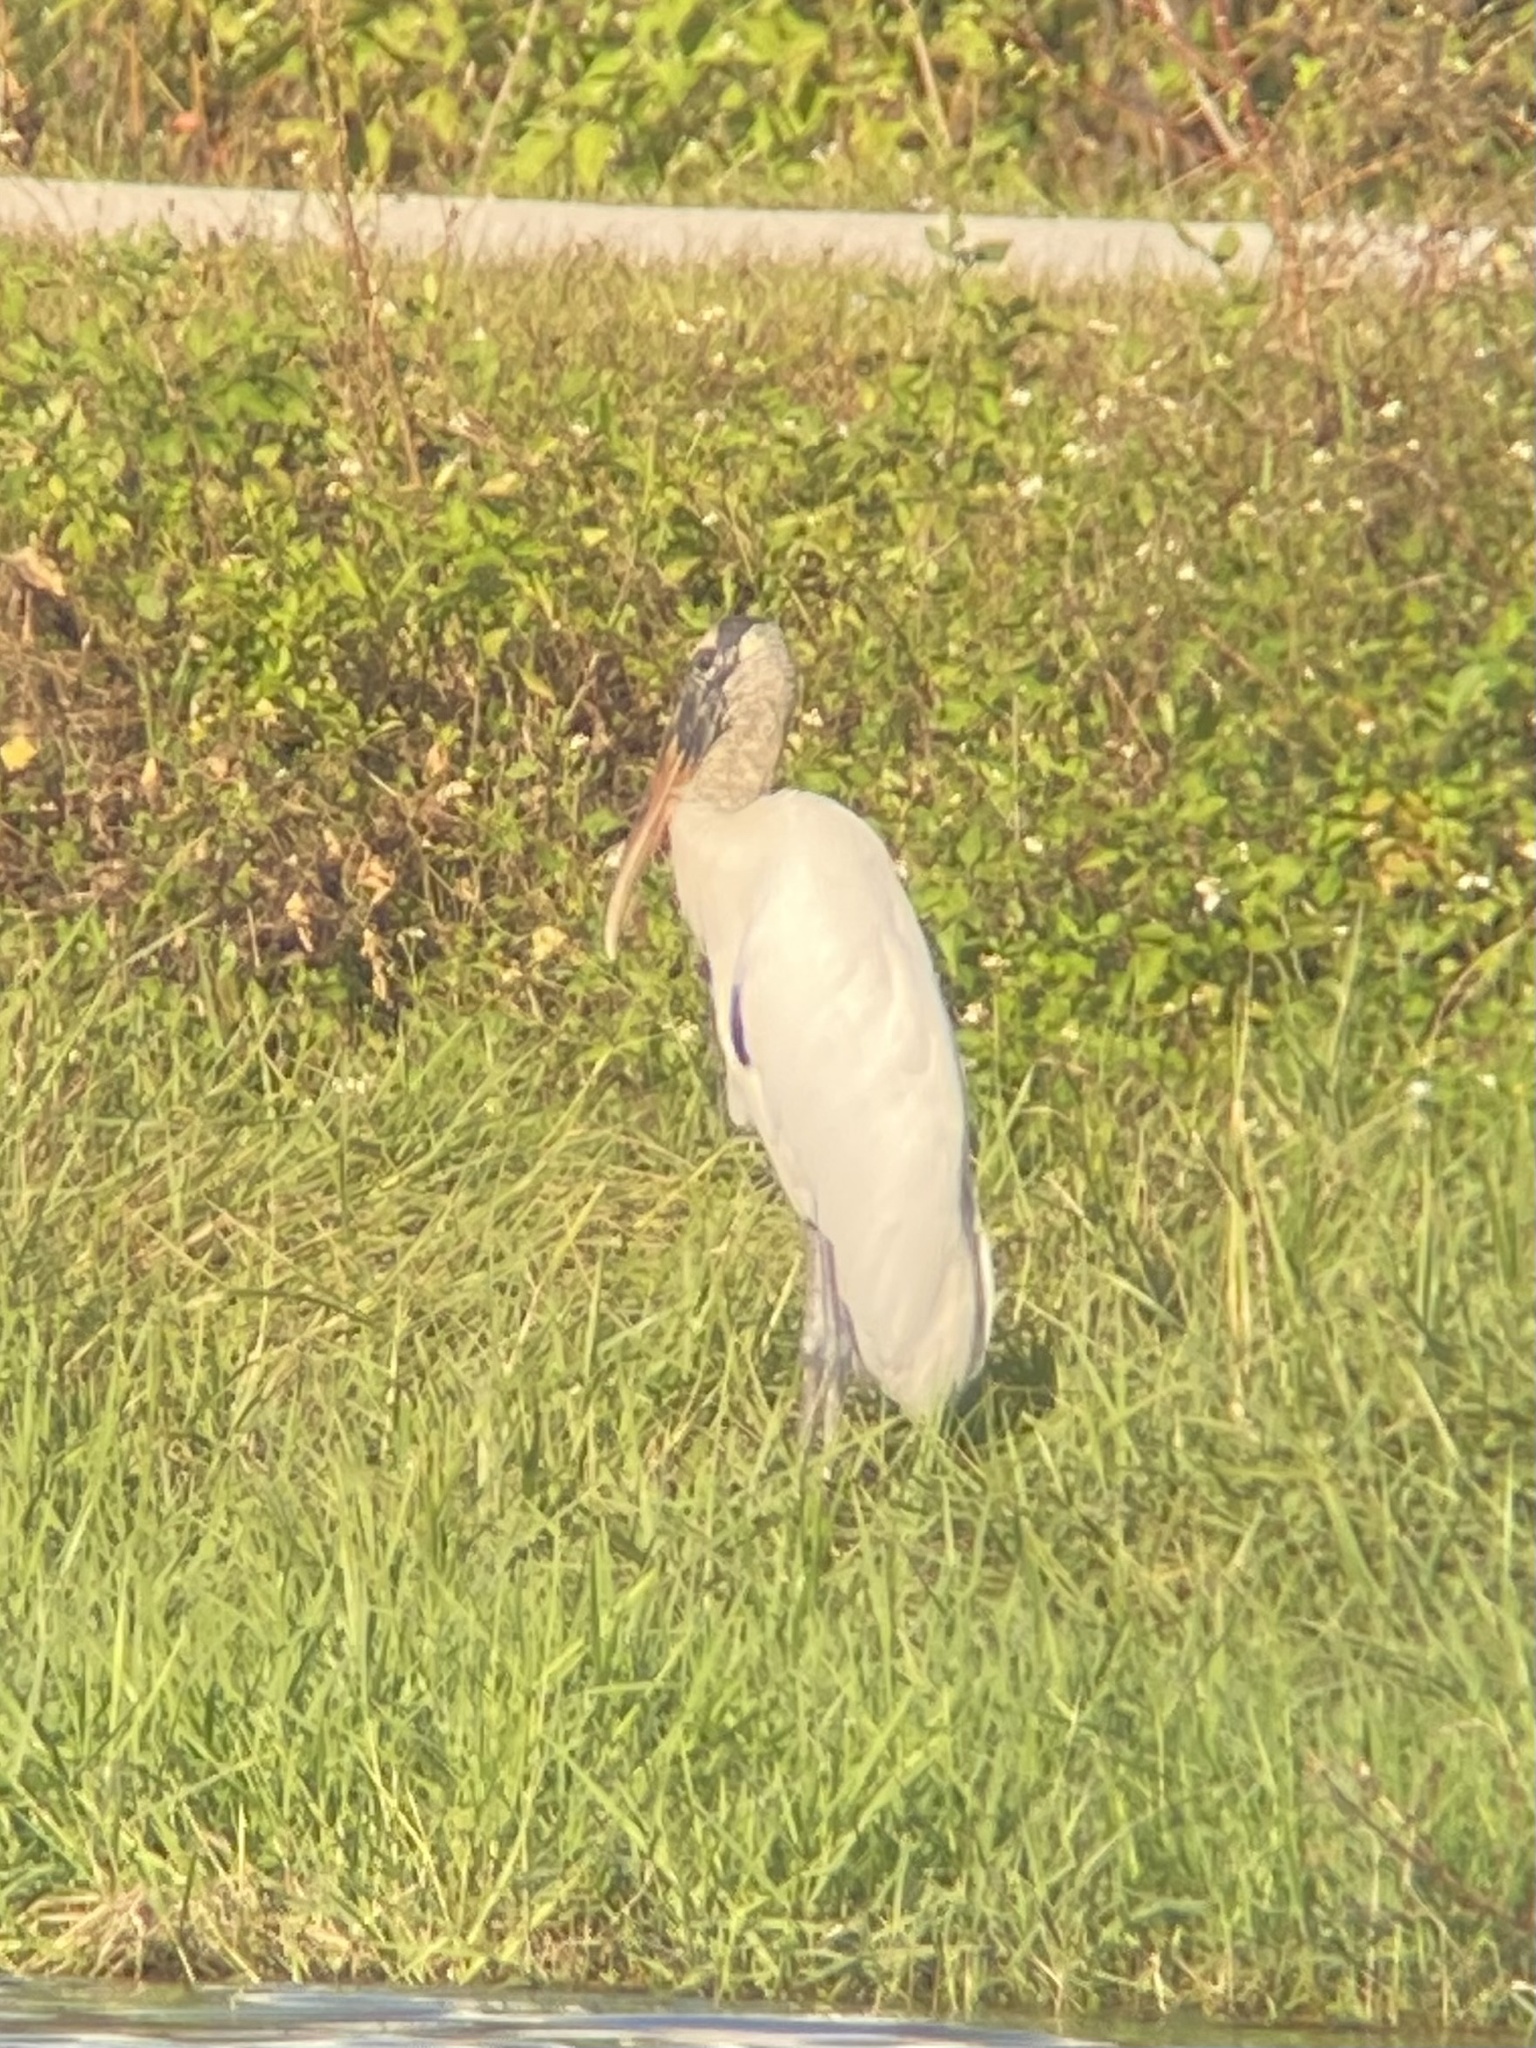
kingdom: Animalia
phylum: Chordata
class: Aves
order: Ciconiiformes
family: Ciconiidae
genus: Mycteria
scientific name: Mycteria americana
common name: Wood stork
